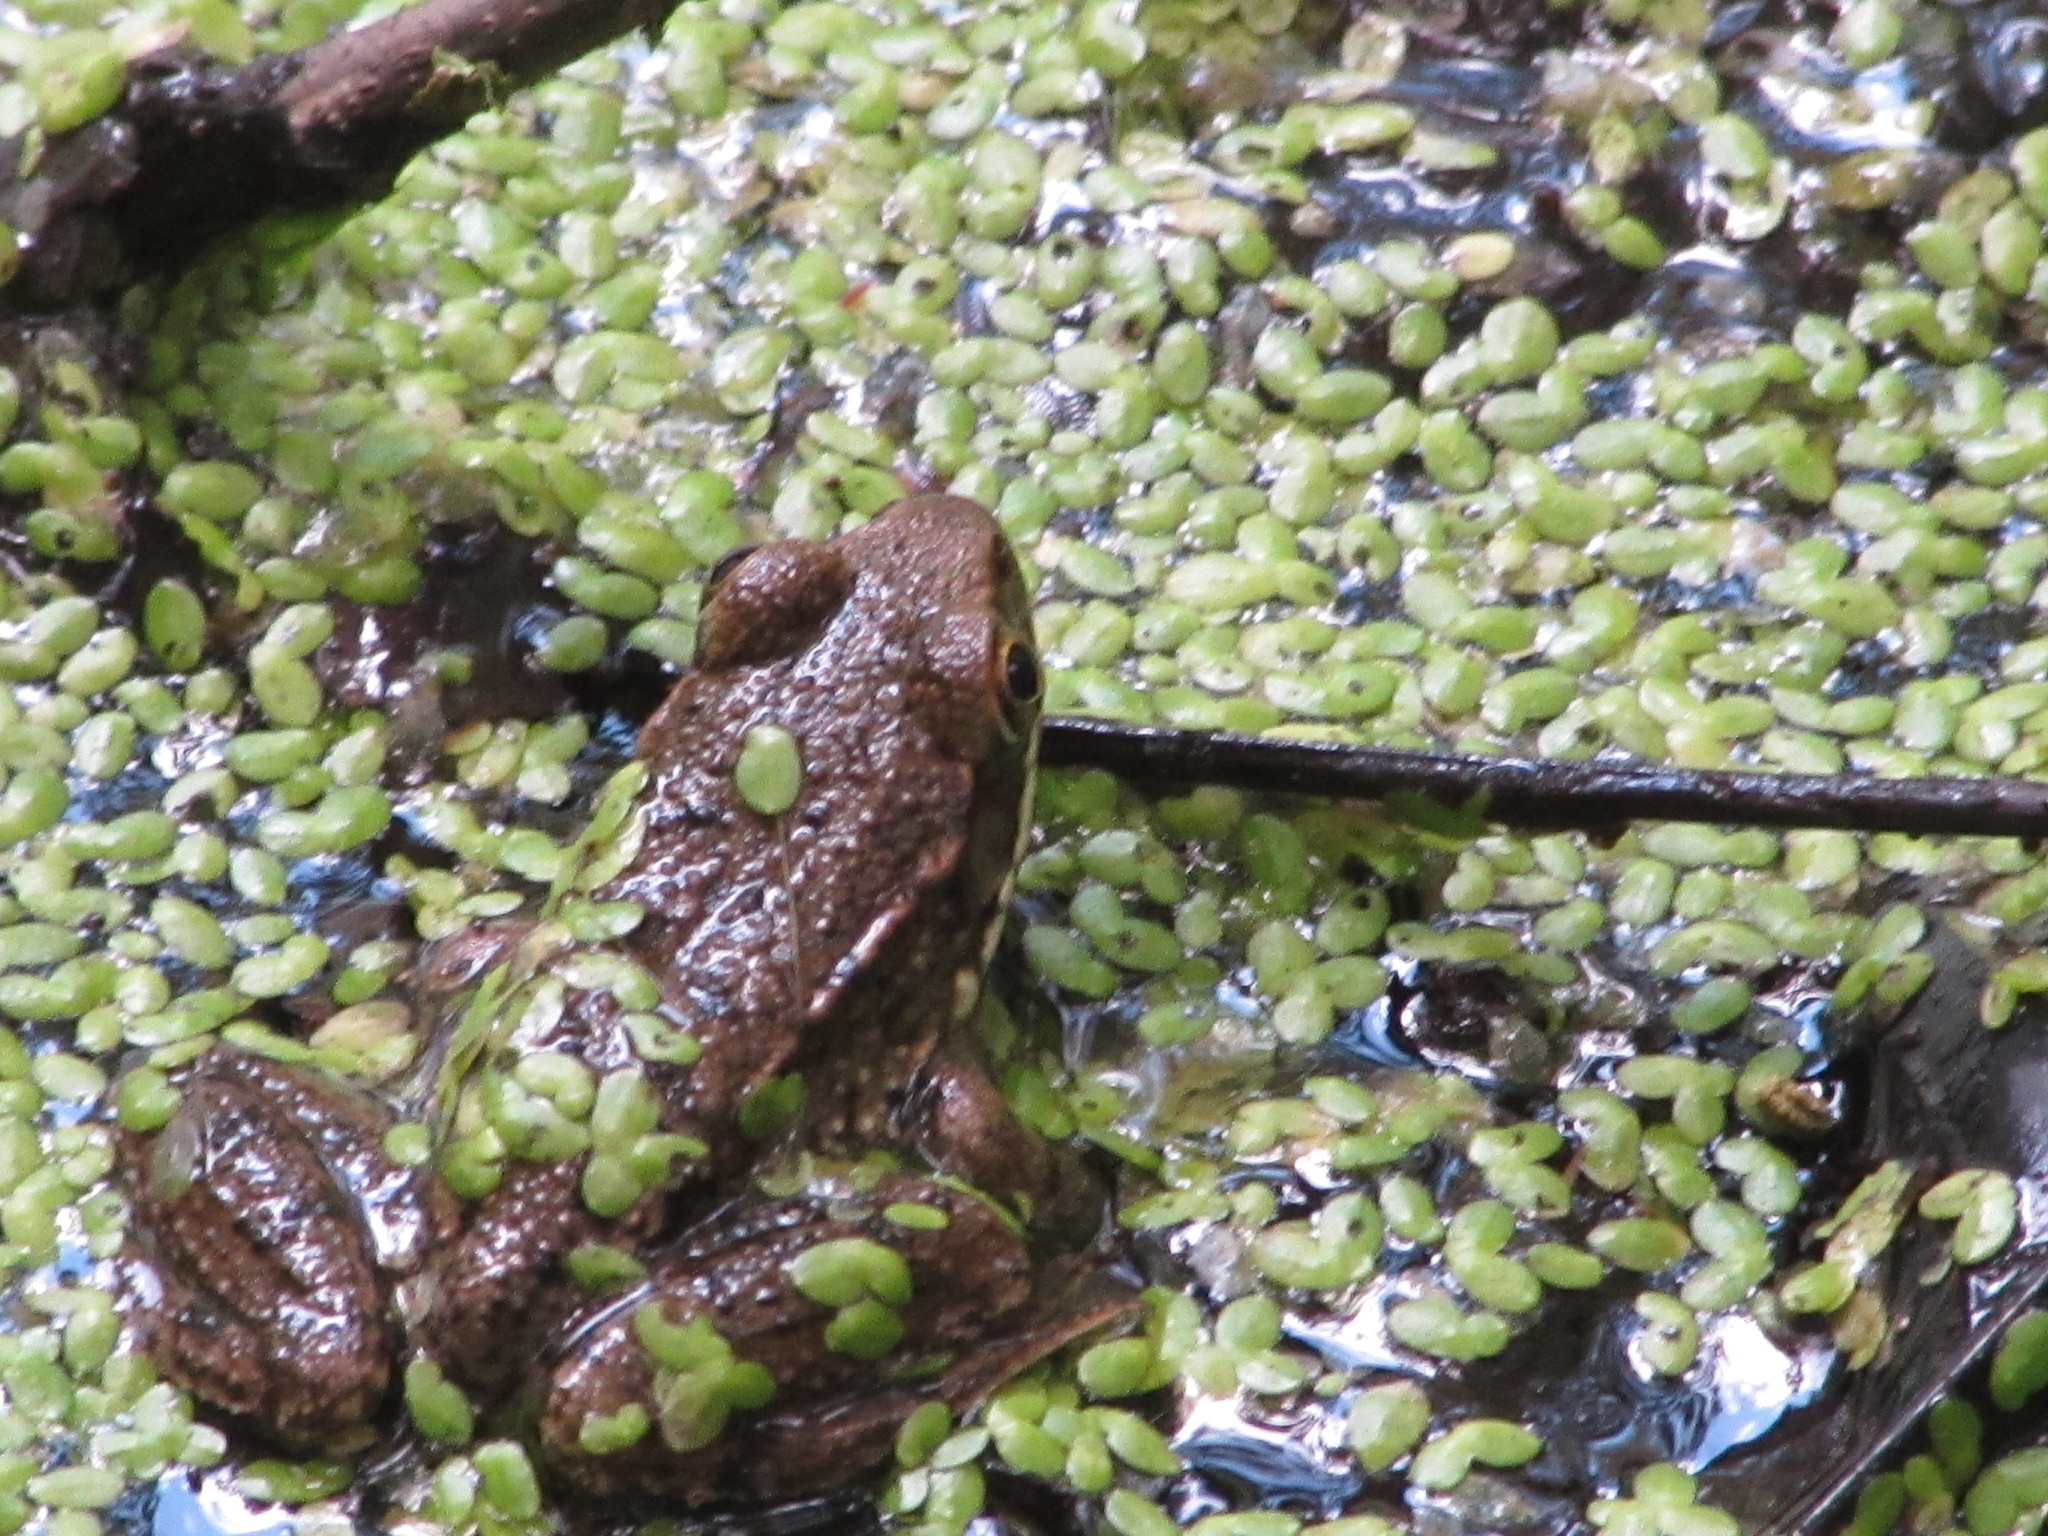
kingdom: Animalia
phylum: Chordata
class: Amphibia
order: Anura
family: Ranidae
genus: Lithobates
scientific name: Lithobates clamitans
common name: Green frog
